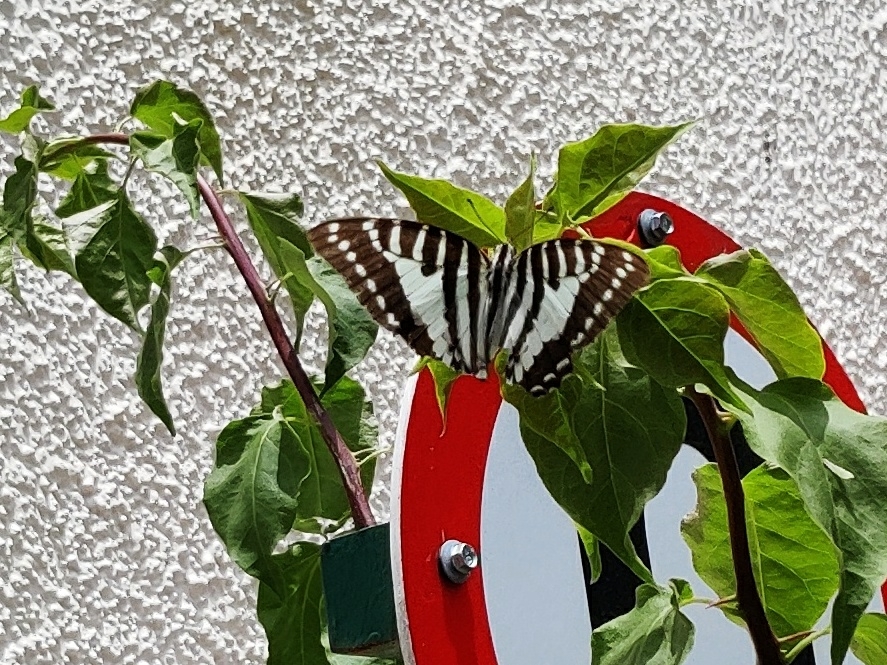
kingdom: Animalia
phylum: Arthropoda
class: Insecta
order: Lepidoptera
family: Papilionidae
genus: Graphium
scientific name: Graphium nomius
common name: Spot swordtail
